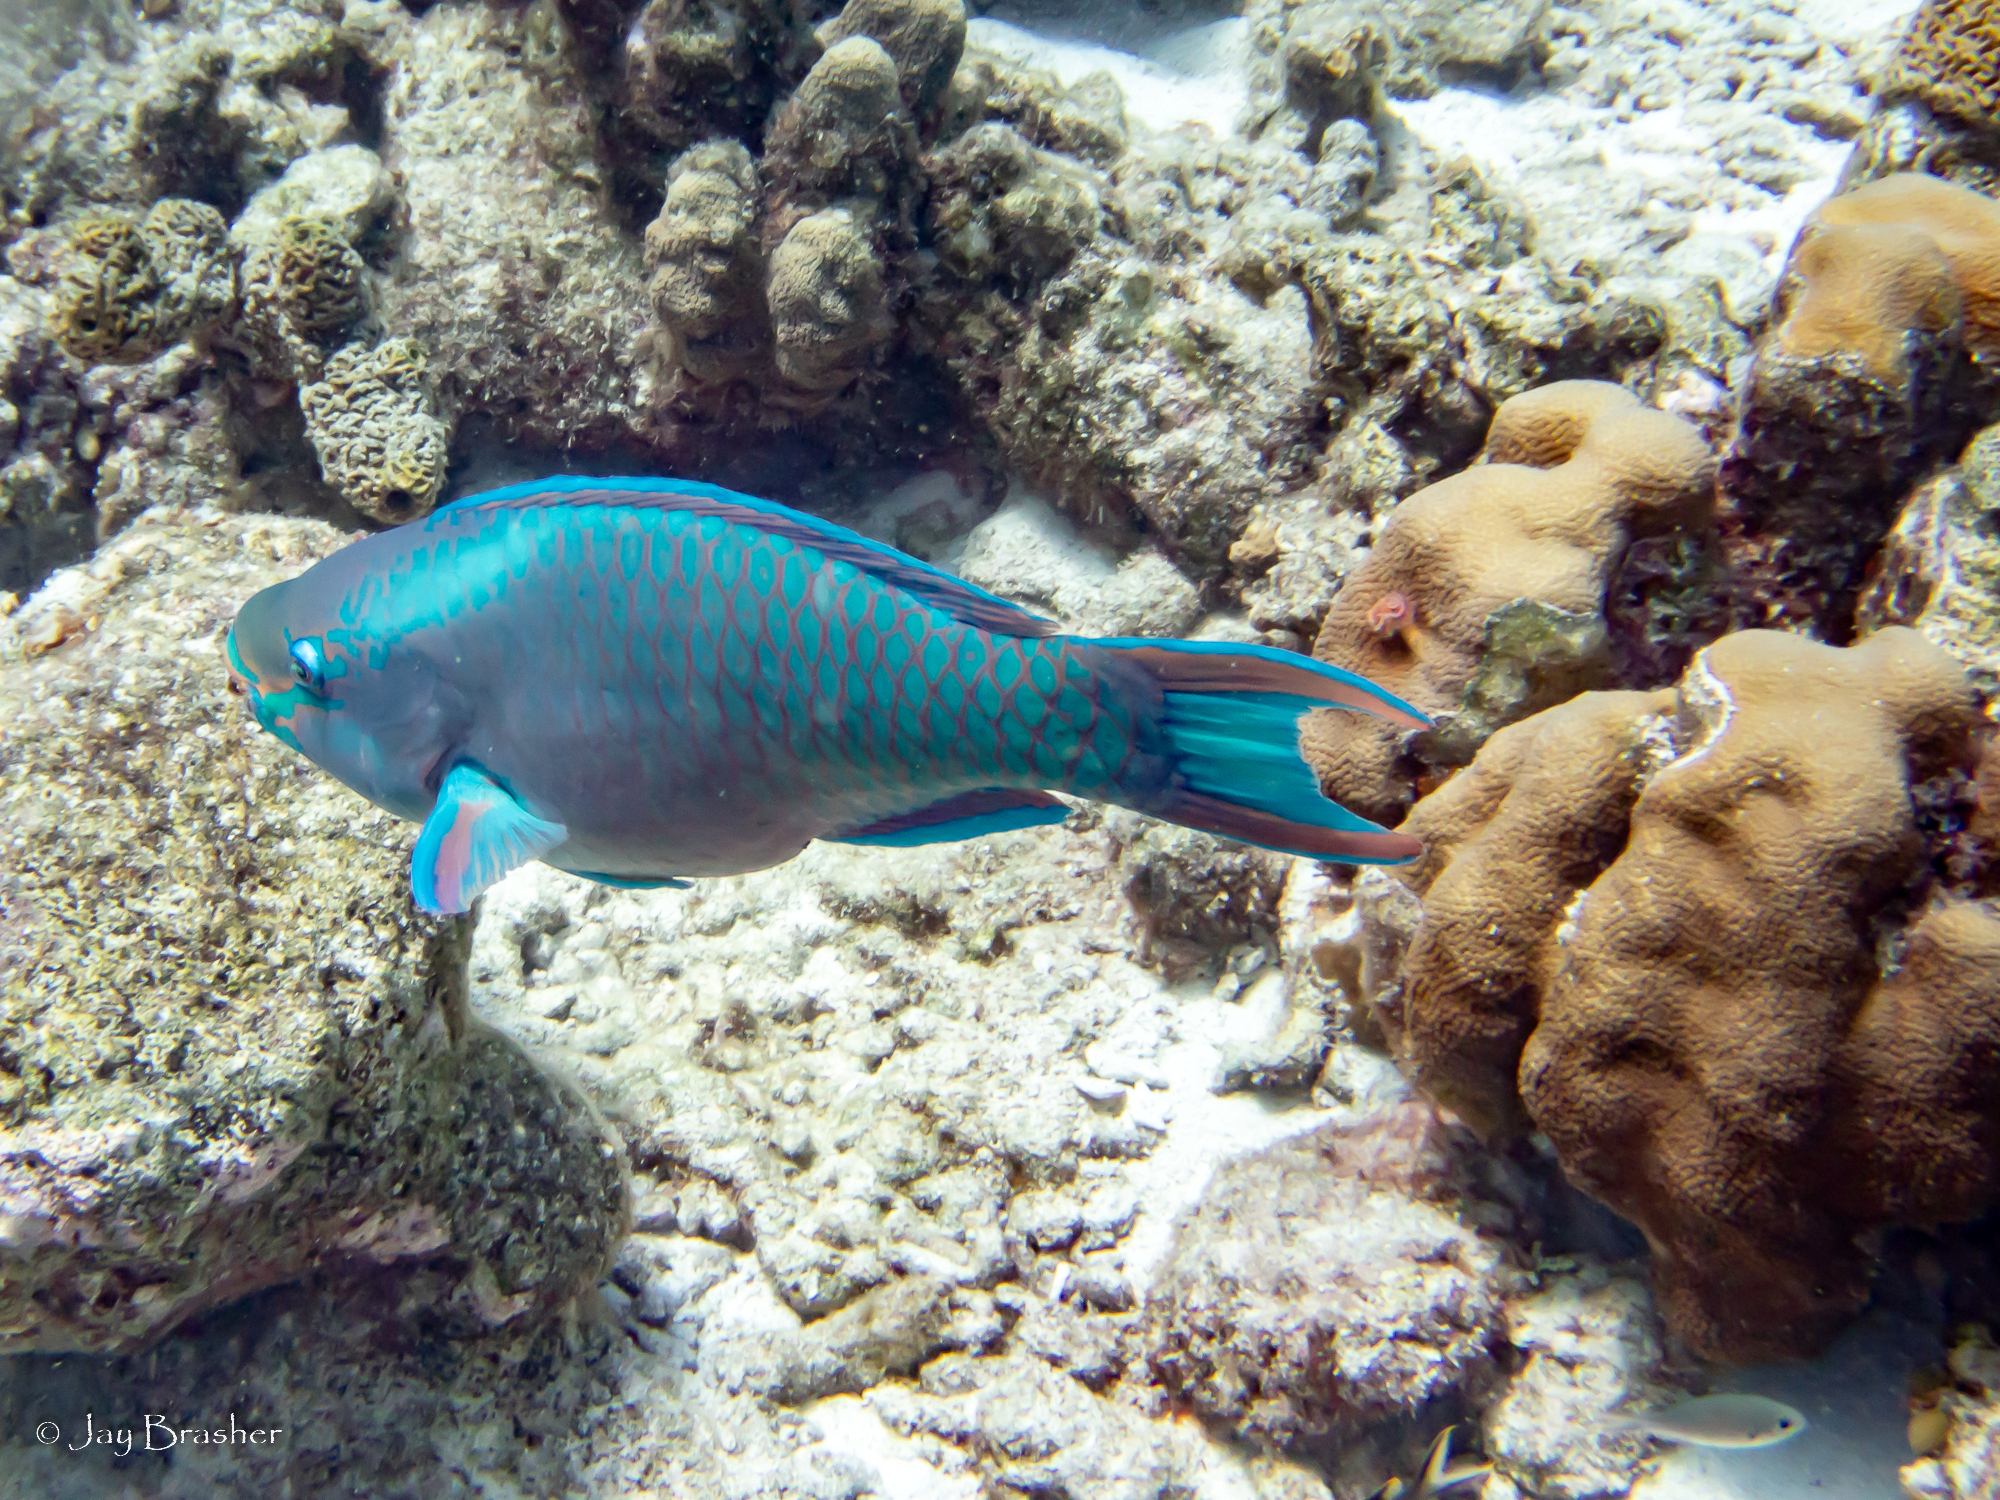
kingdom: Animalia
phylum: Chordata
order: Perciformes
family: Scaridae
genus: Scarus
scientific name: Scarus vetula
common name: Queen parrotfish
